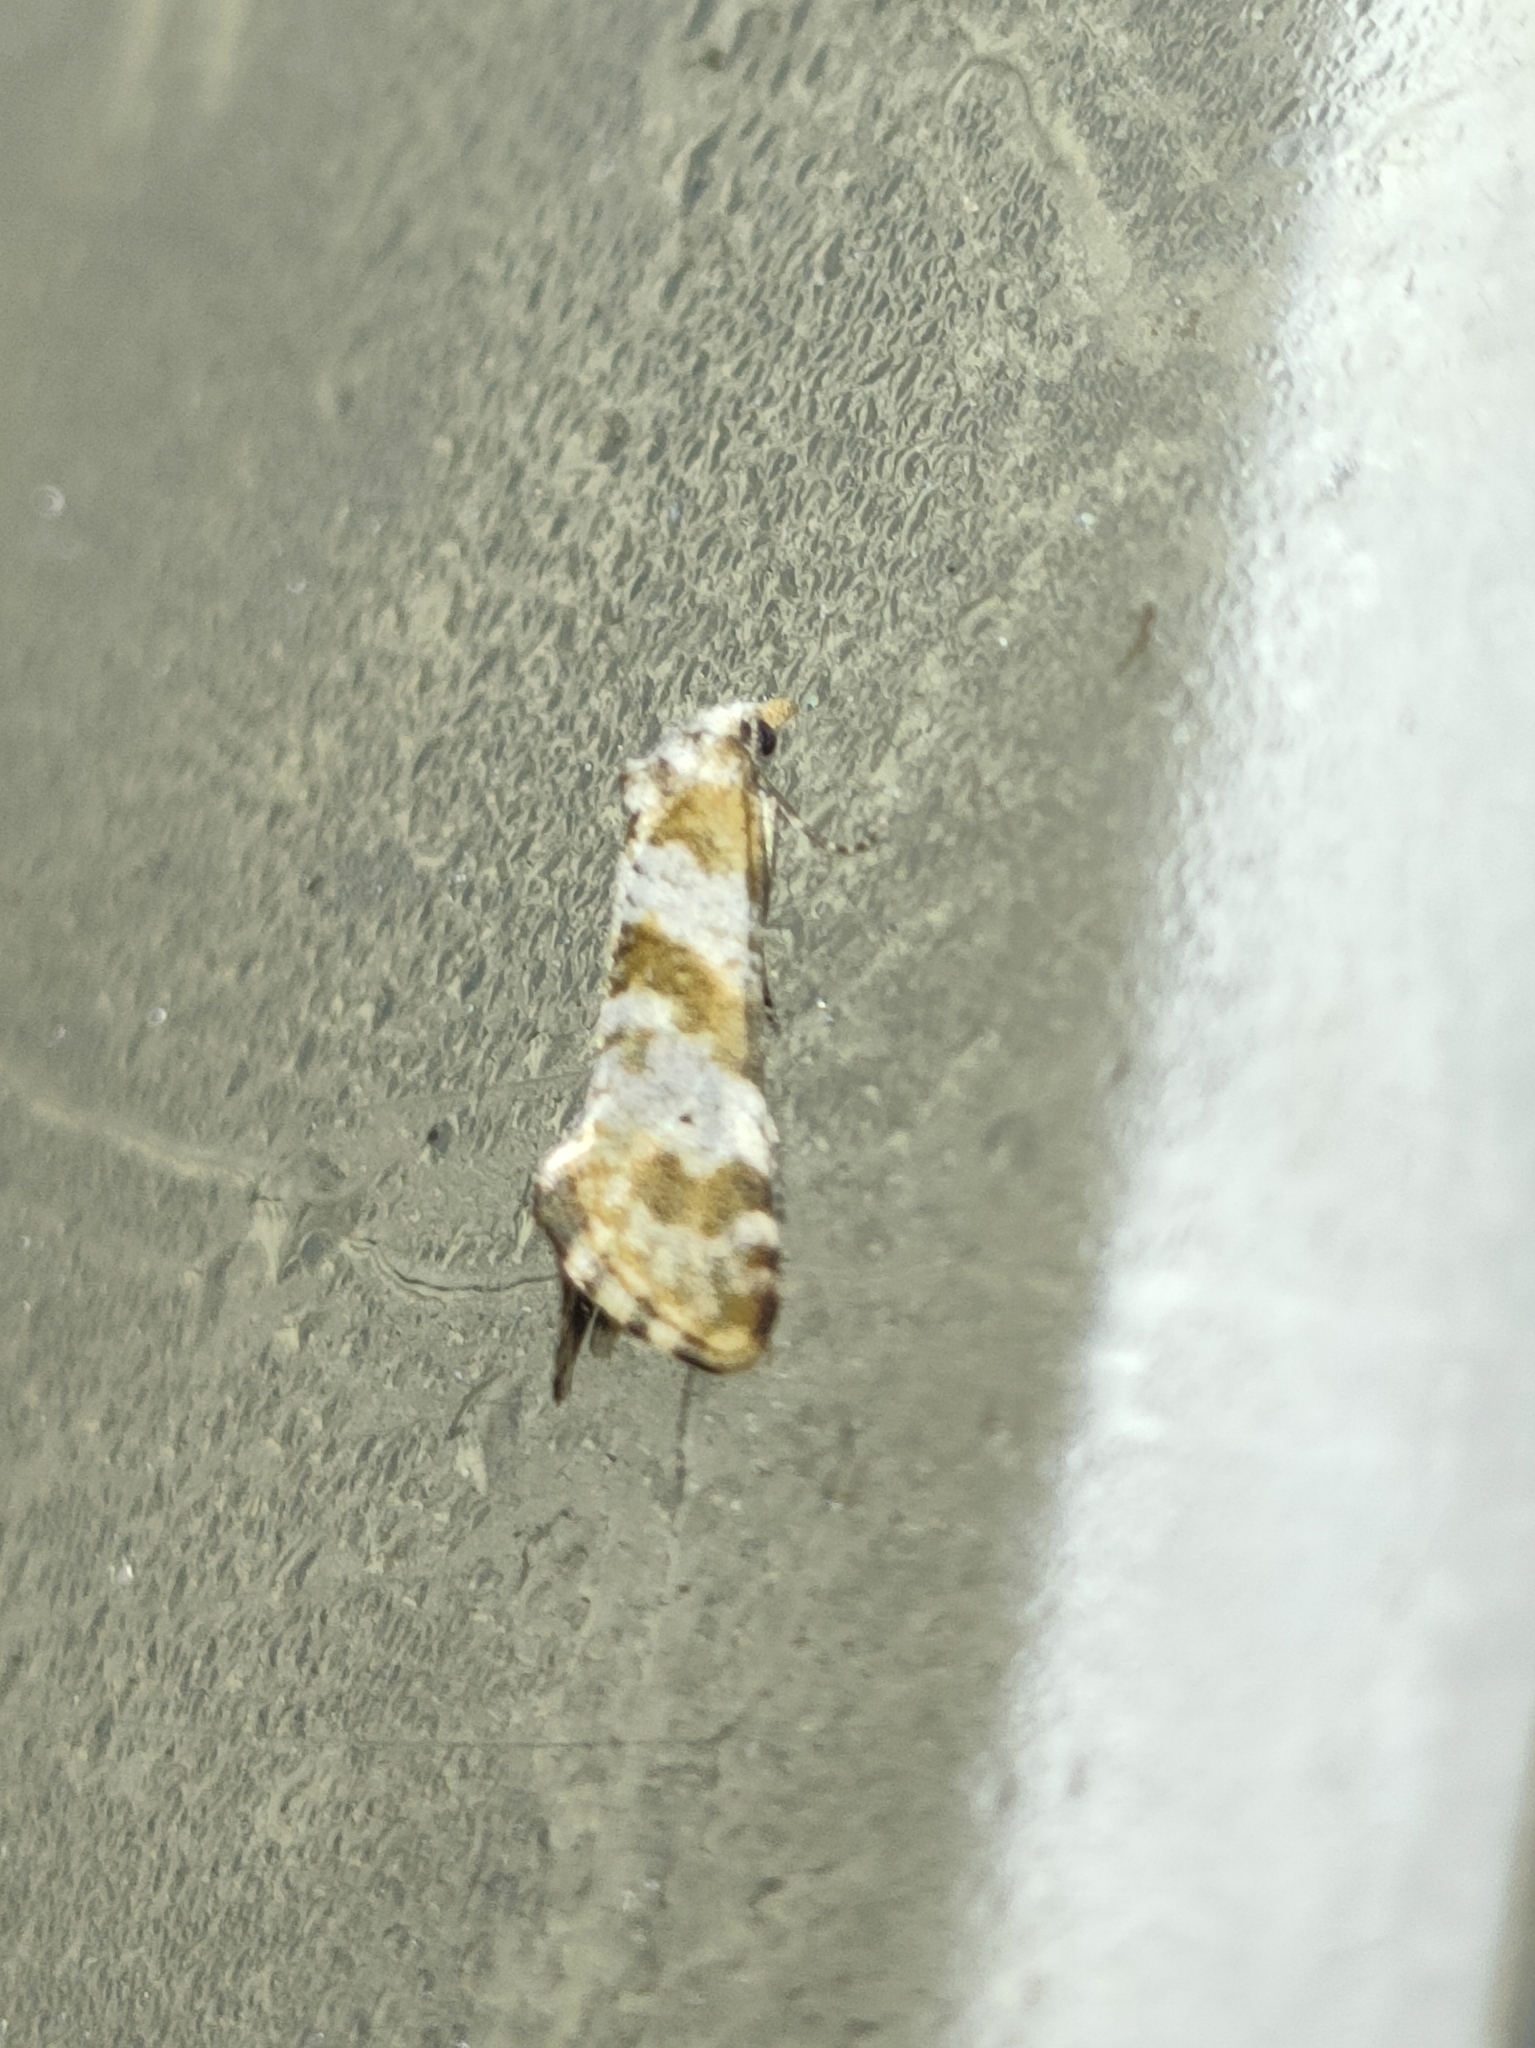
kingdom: Animalia
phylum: Arthropoda
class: Insecta
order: Lepidoptera
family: Tortricidae
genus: Cochylimorpha
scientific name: Cochylimorpha cultana
